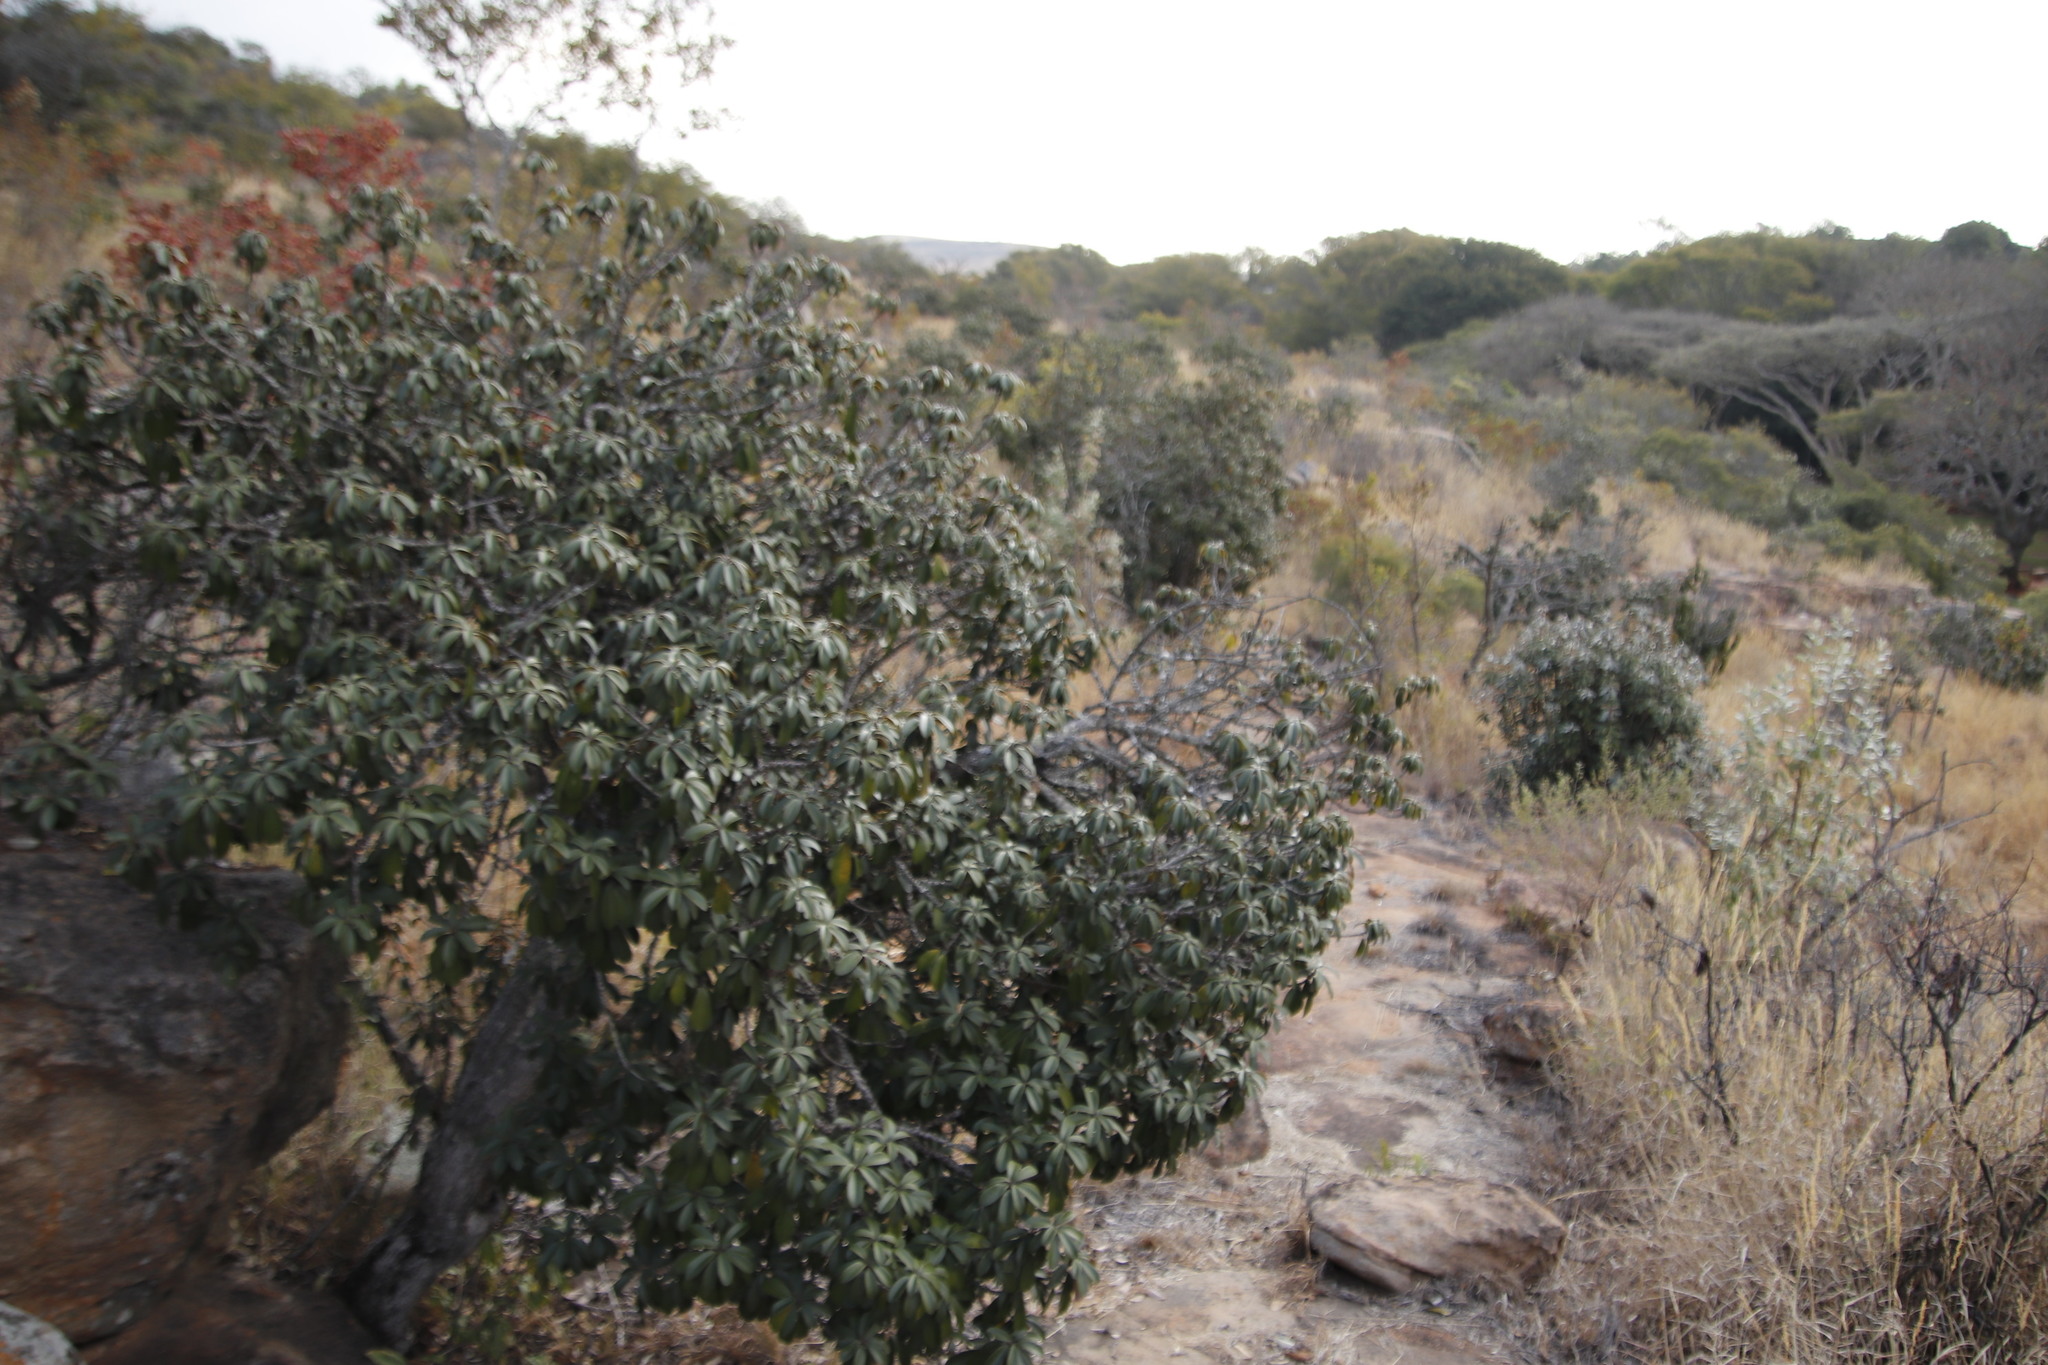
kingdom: Plantae
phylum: Tracheophyta
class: Magnoliopsida
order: Ericales
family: Sapotaceae
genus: Englerophytum
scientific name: Englerophytum magalismontanum
